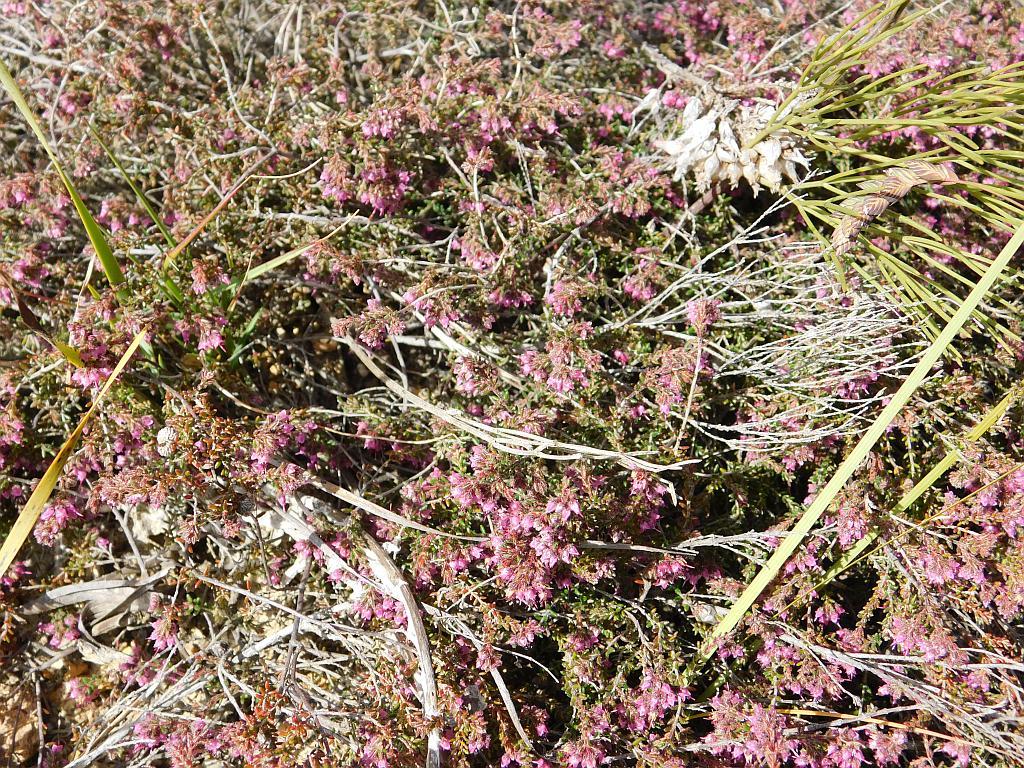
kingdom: Plantae
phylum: Tracheophyta
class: Magnoliopsida
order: Ericales
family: Ericaceae
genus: Erica
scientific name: Erica filiformis
